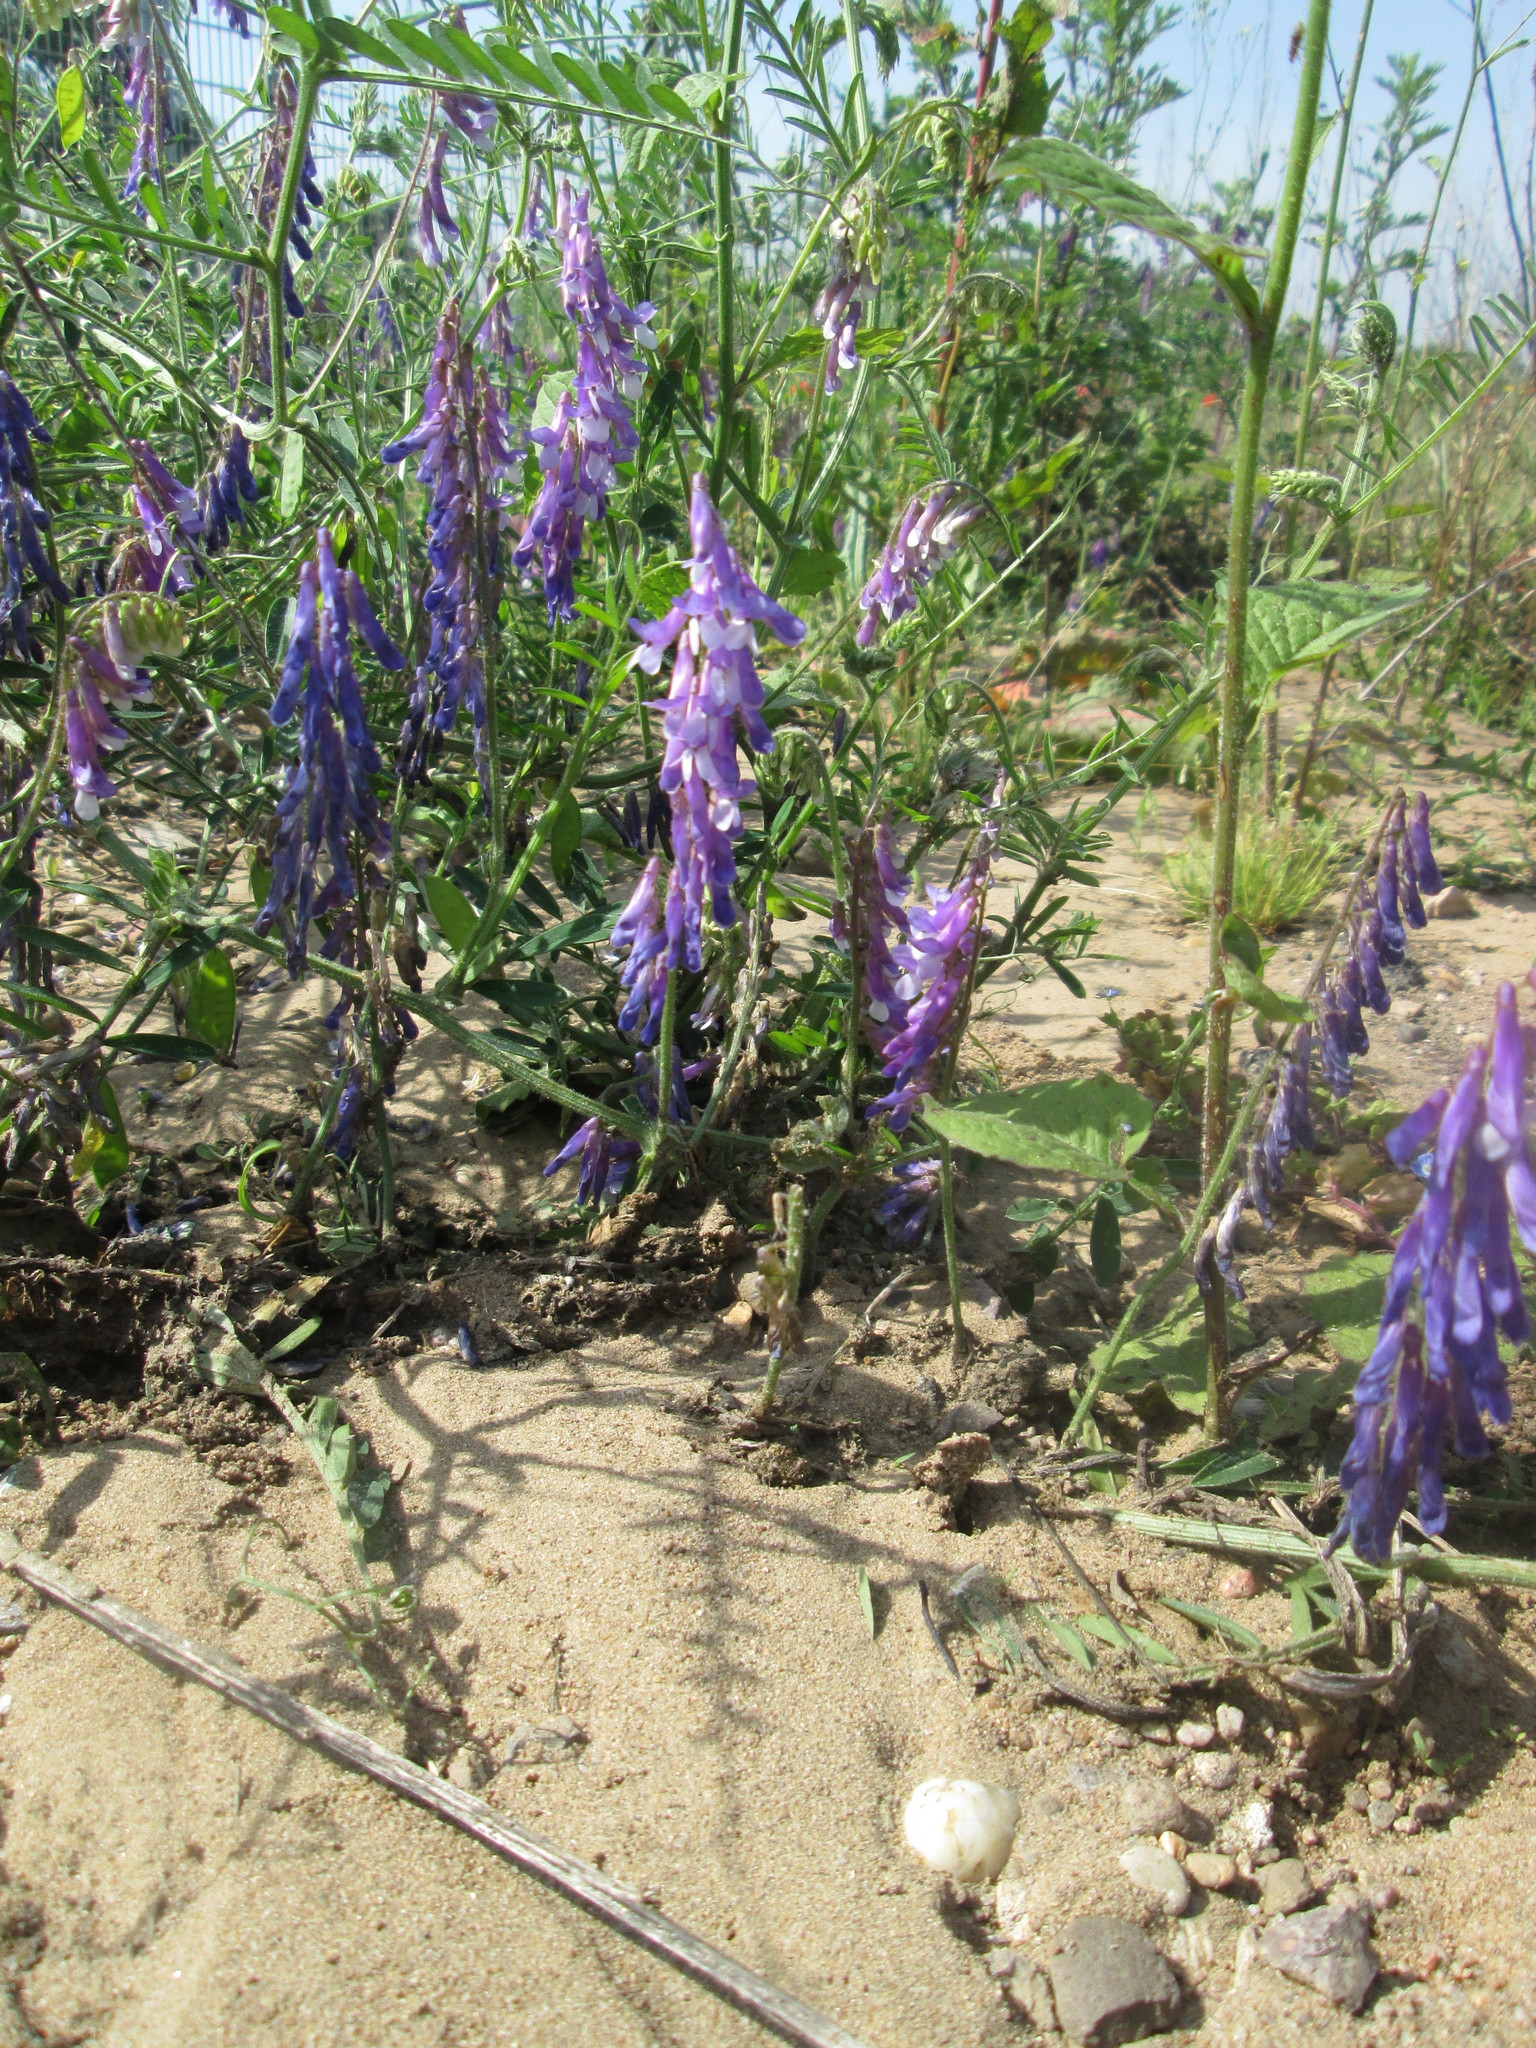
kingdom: Plantae
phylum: Tracheophyta
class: Magnoliopsida
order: Fabales
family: Fabaceae
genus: Vicia
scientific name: Vicia cracca
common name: Bird vetch
